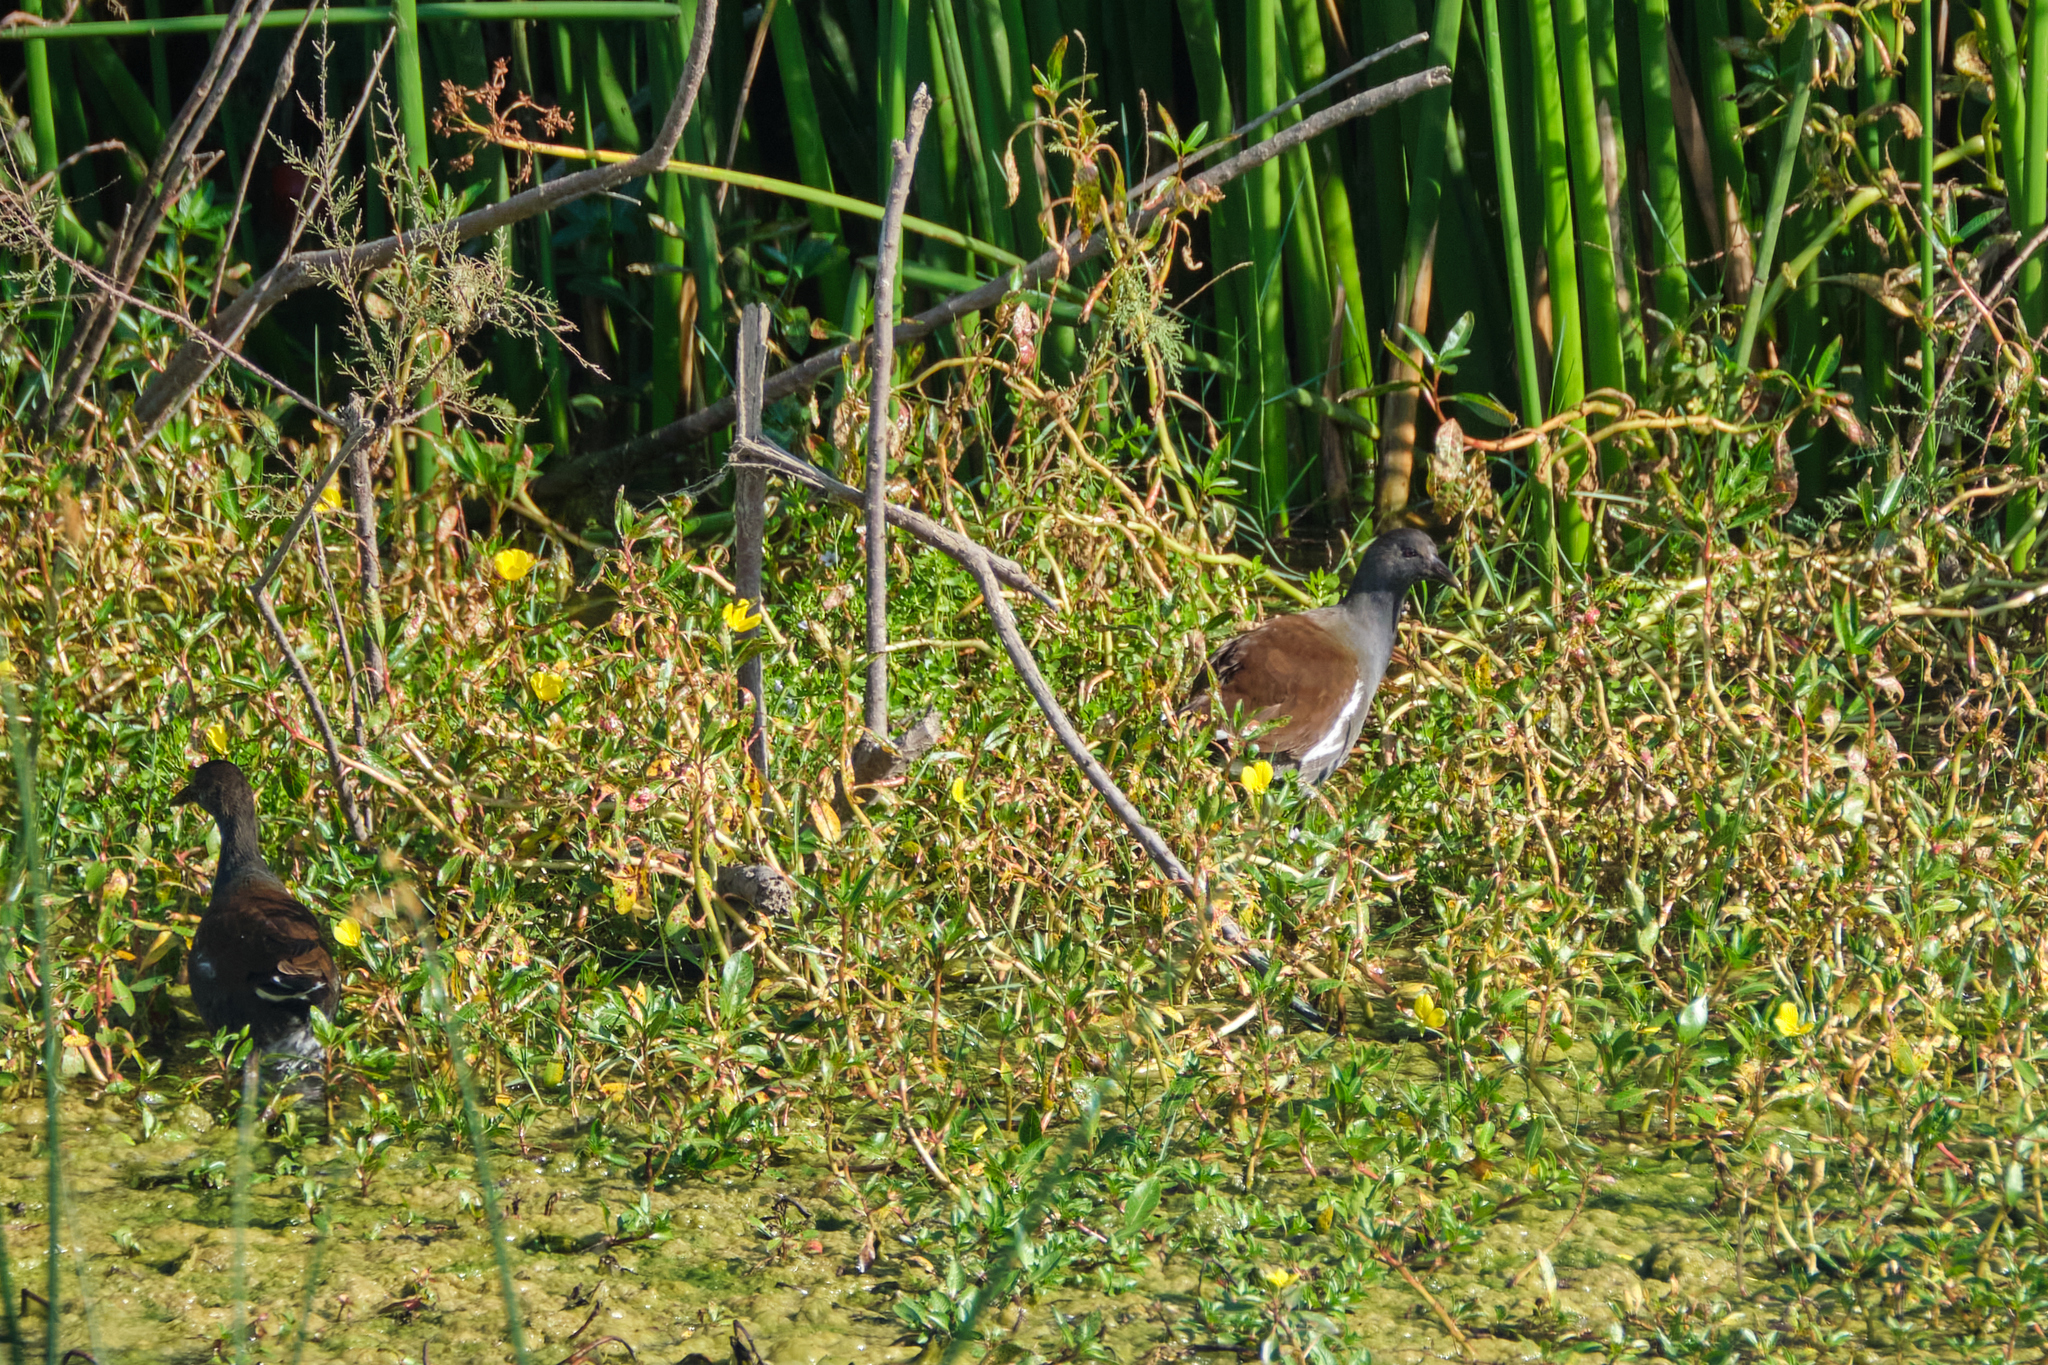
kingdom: Animalia
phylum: Chordata
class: Aves
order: Gruiformes
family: Rallidae
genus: Gallinula
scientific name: Gallinula chloropus
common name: Common moorhen
